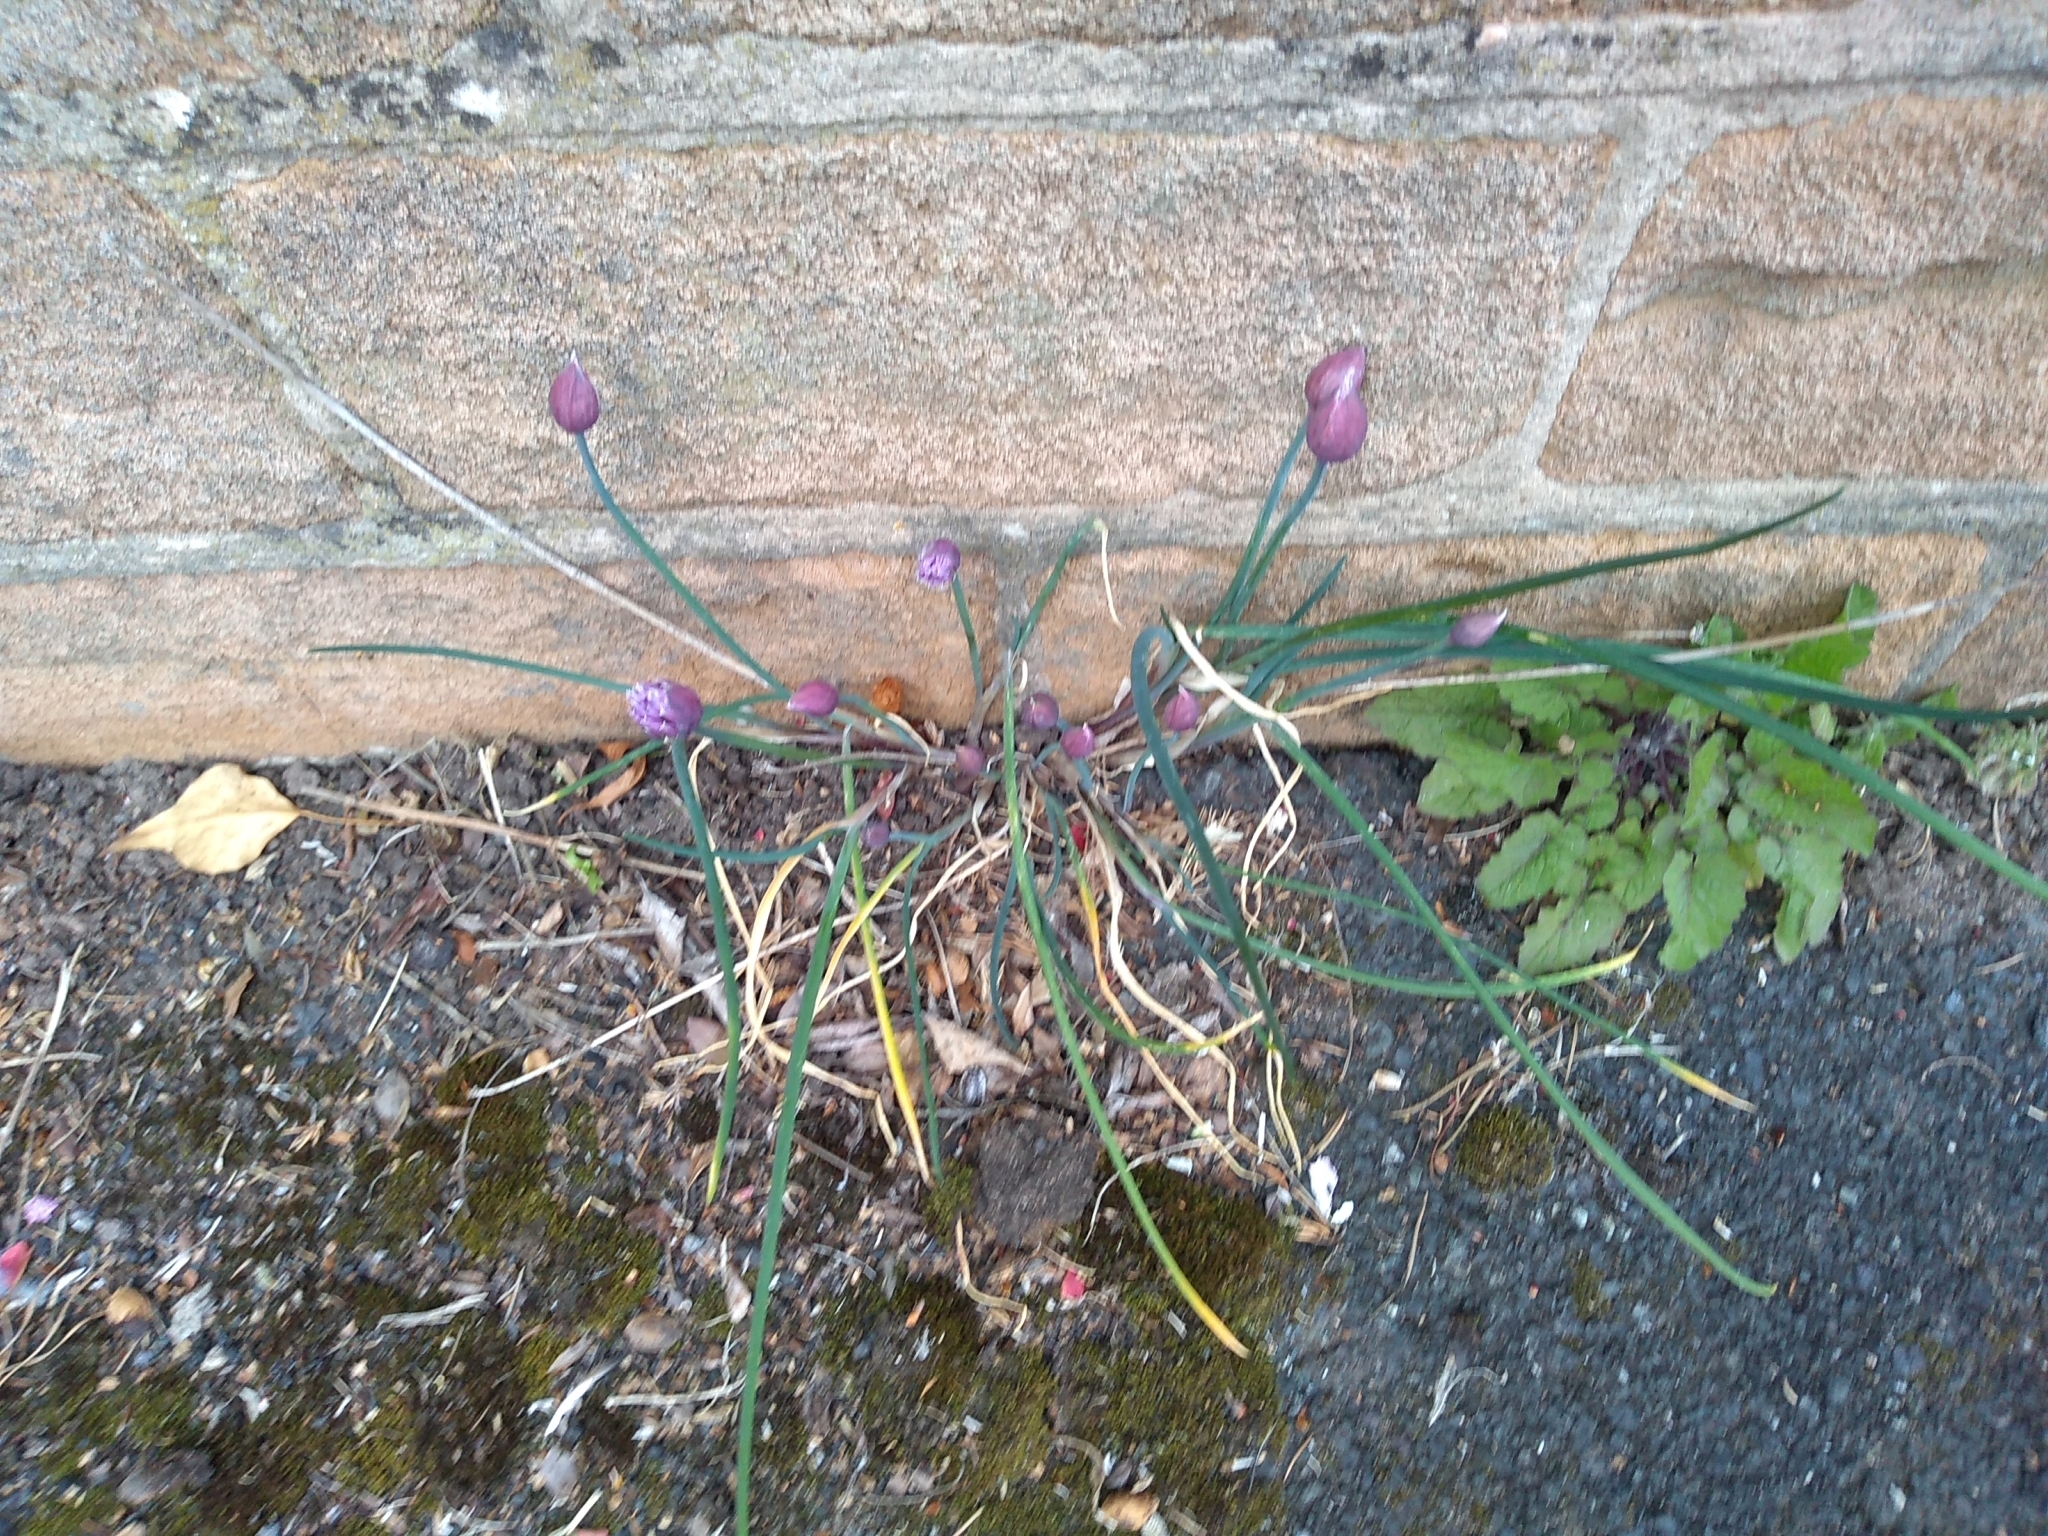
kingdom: Plantae
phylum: Tracheophyta
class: Liliopsida
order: Asparagales
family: Amaryllidaceae
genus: Allium
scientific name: Allium schoenoprasum
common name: Chives
